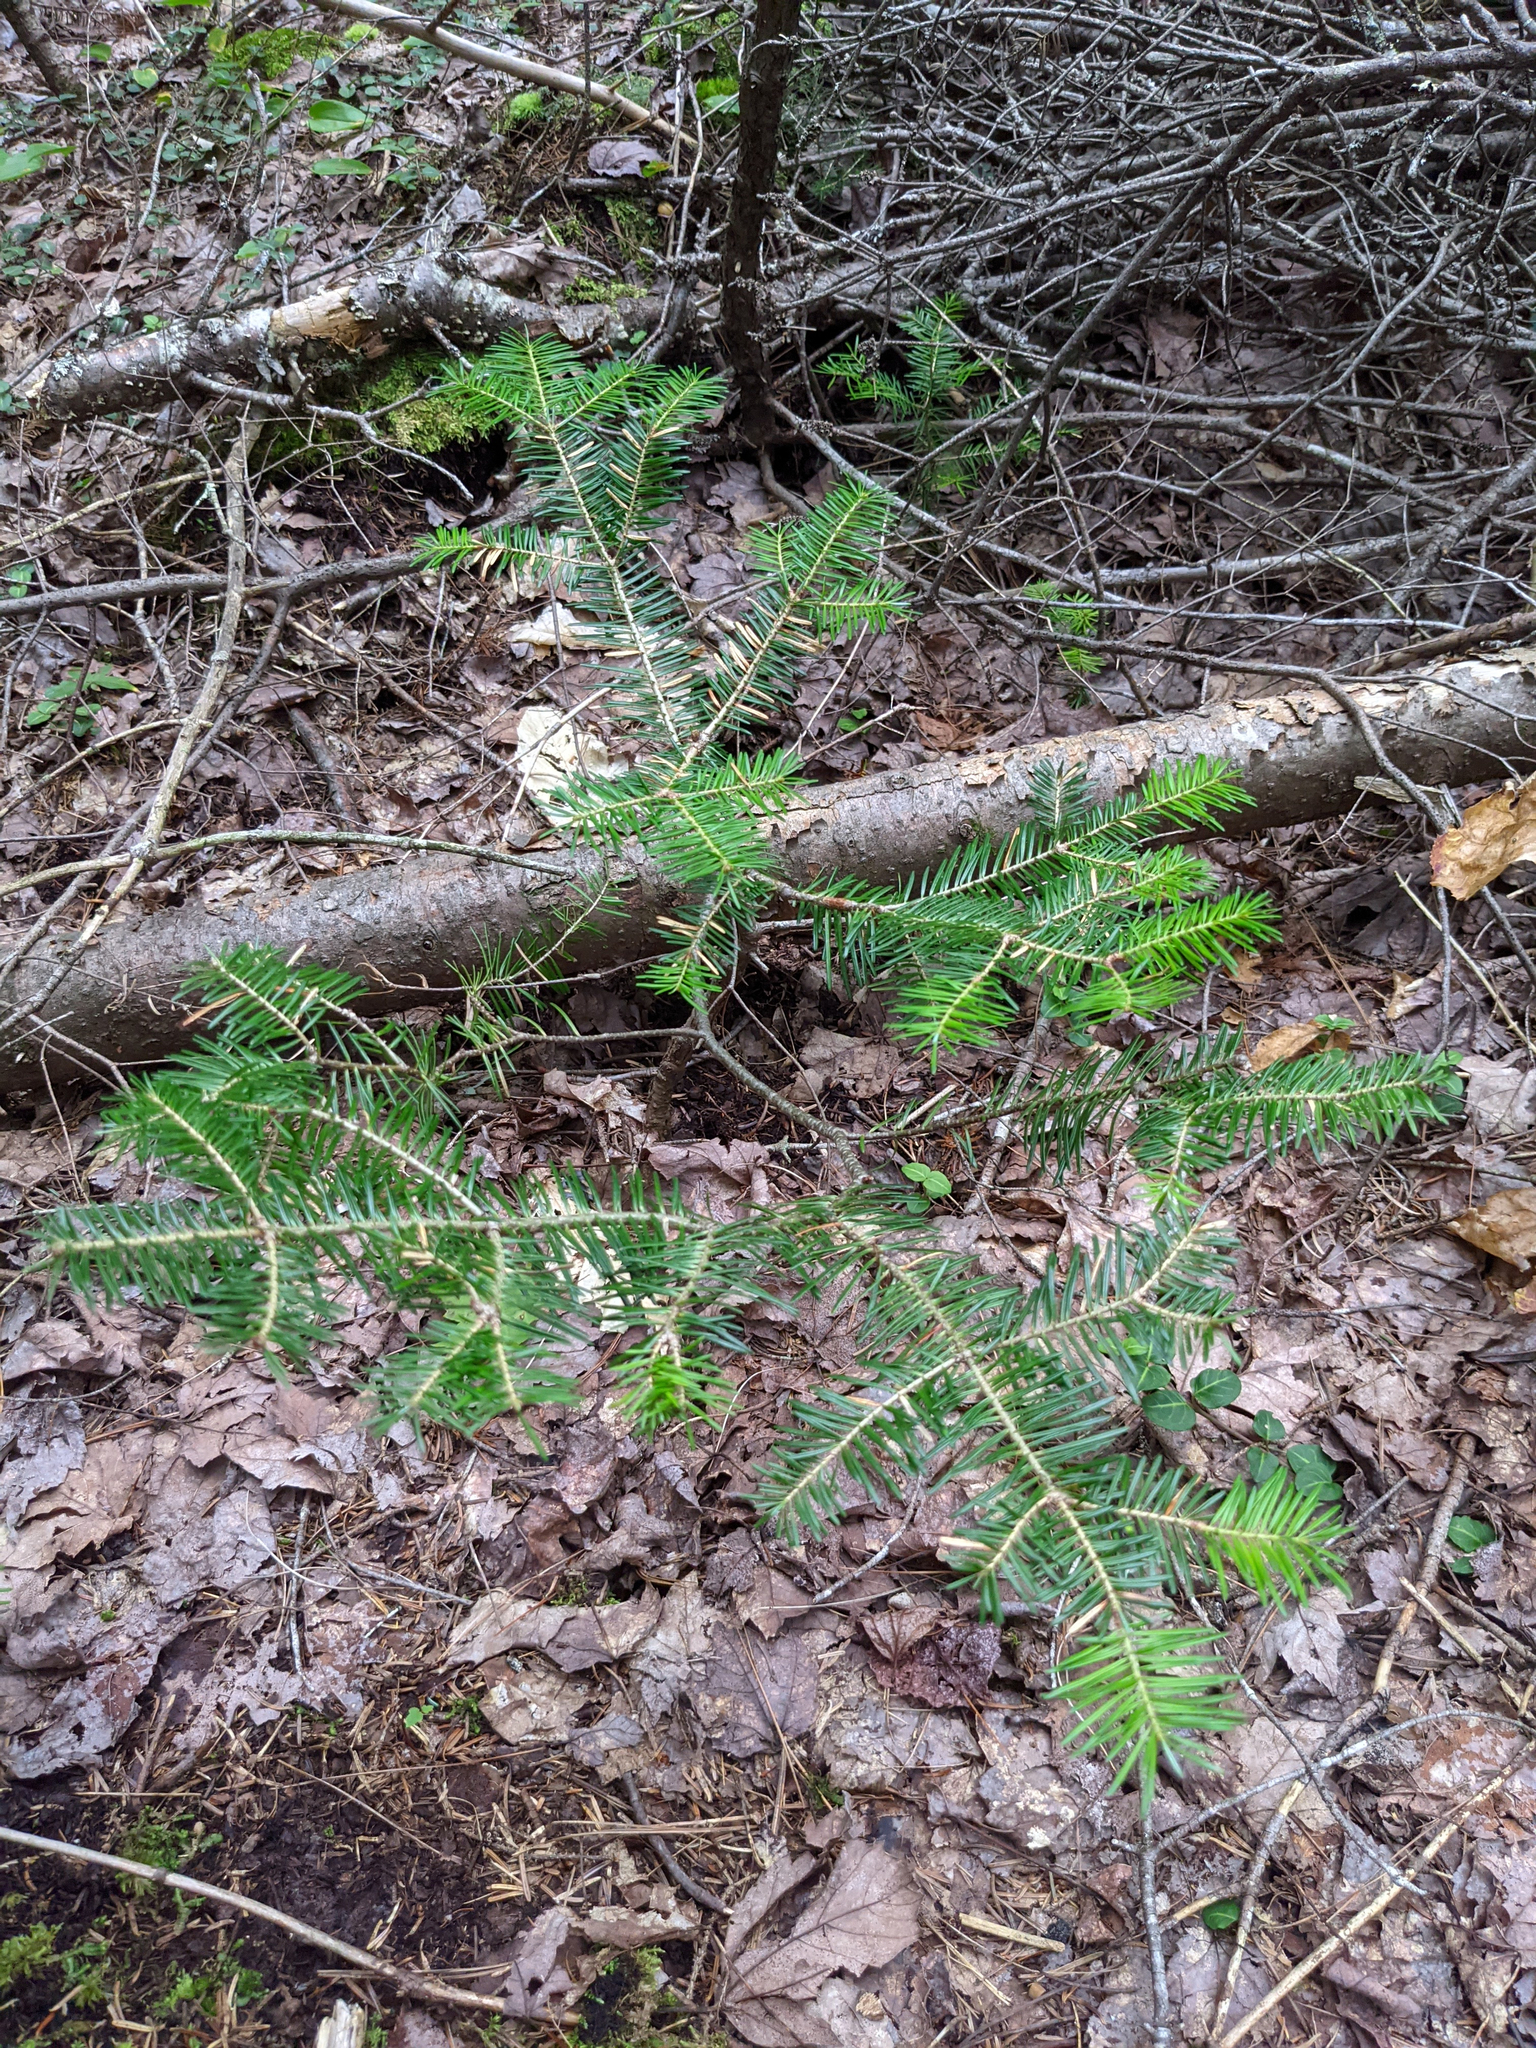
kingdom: Plantae
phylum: Tracheophyta
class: Pinopsida
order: Pinales
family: Pinaceae
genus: Abies
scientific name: Abies balsamea
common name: Balsam fir
